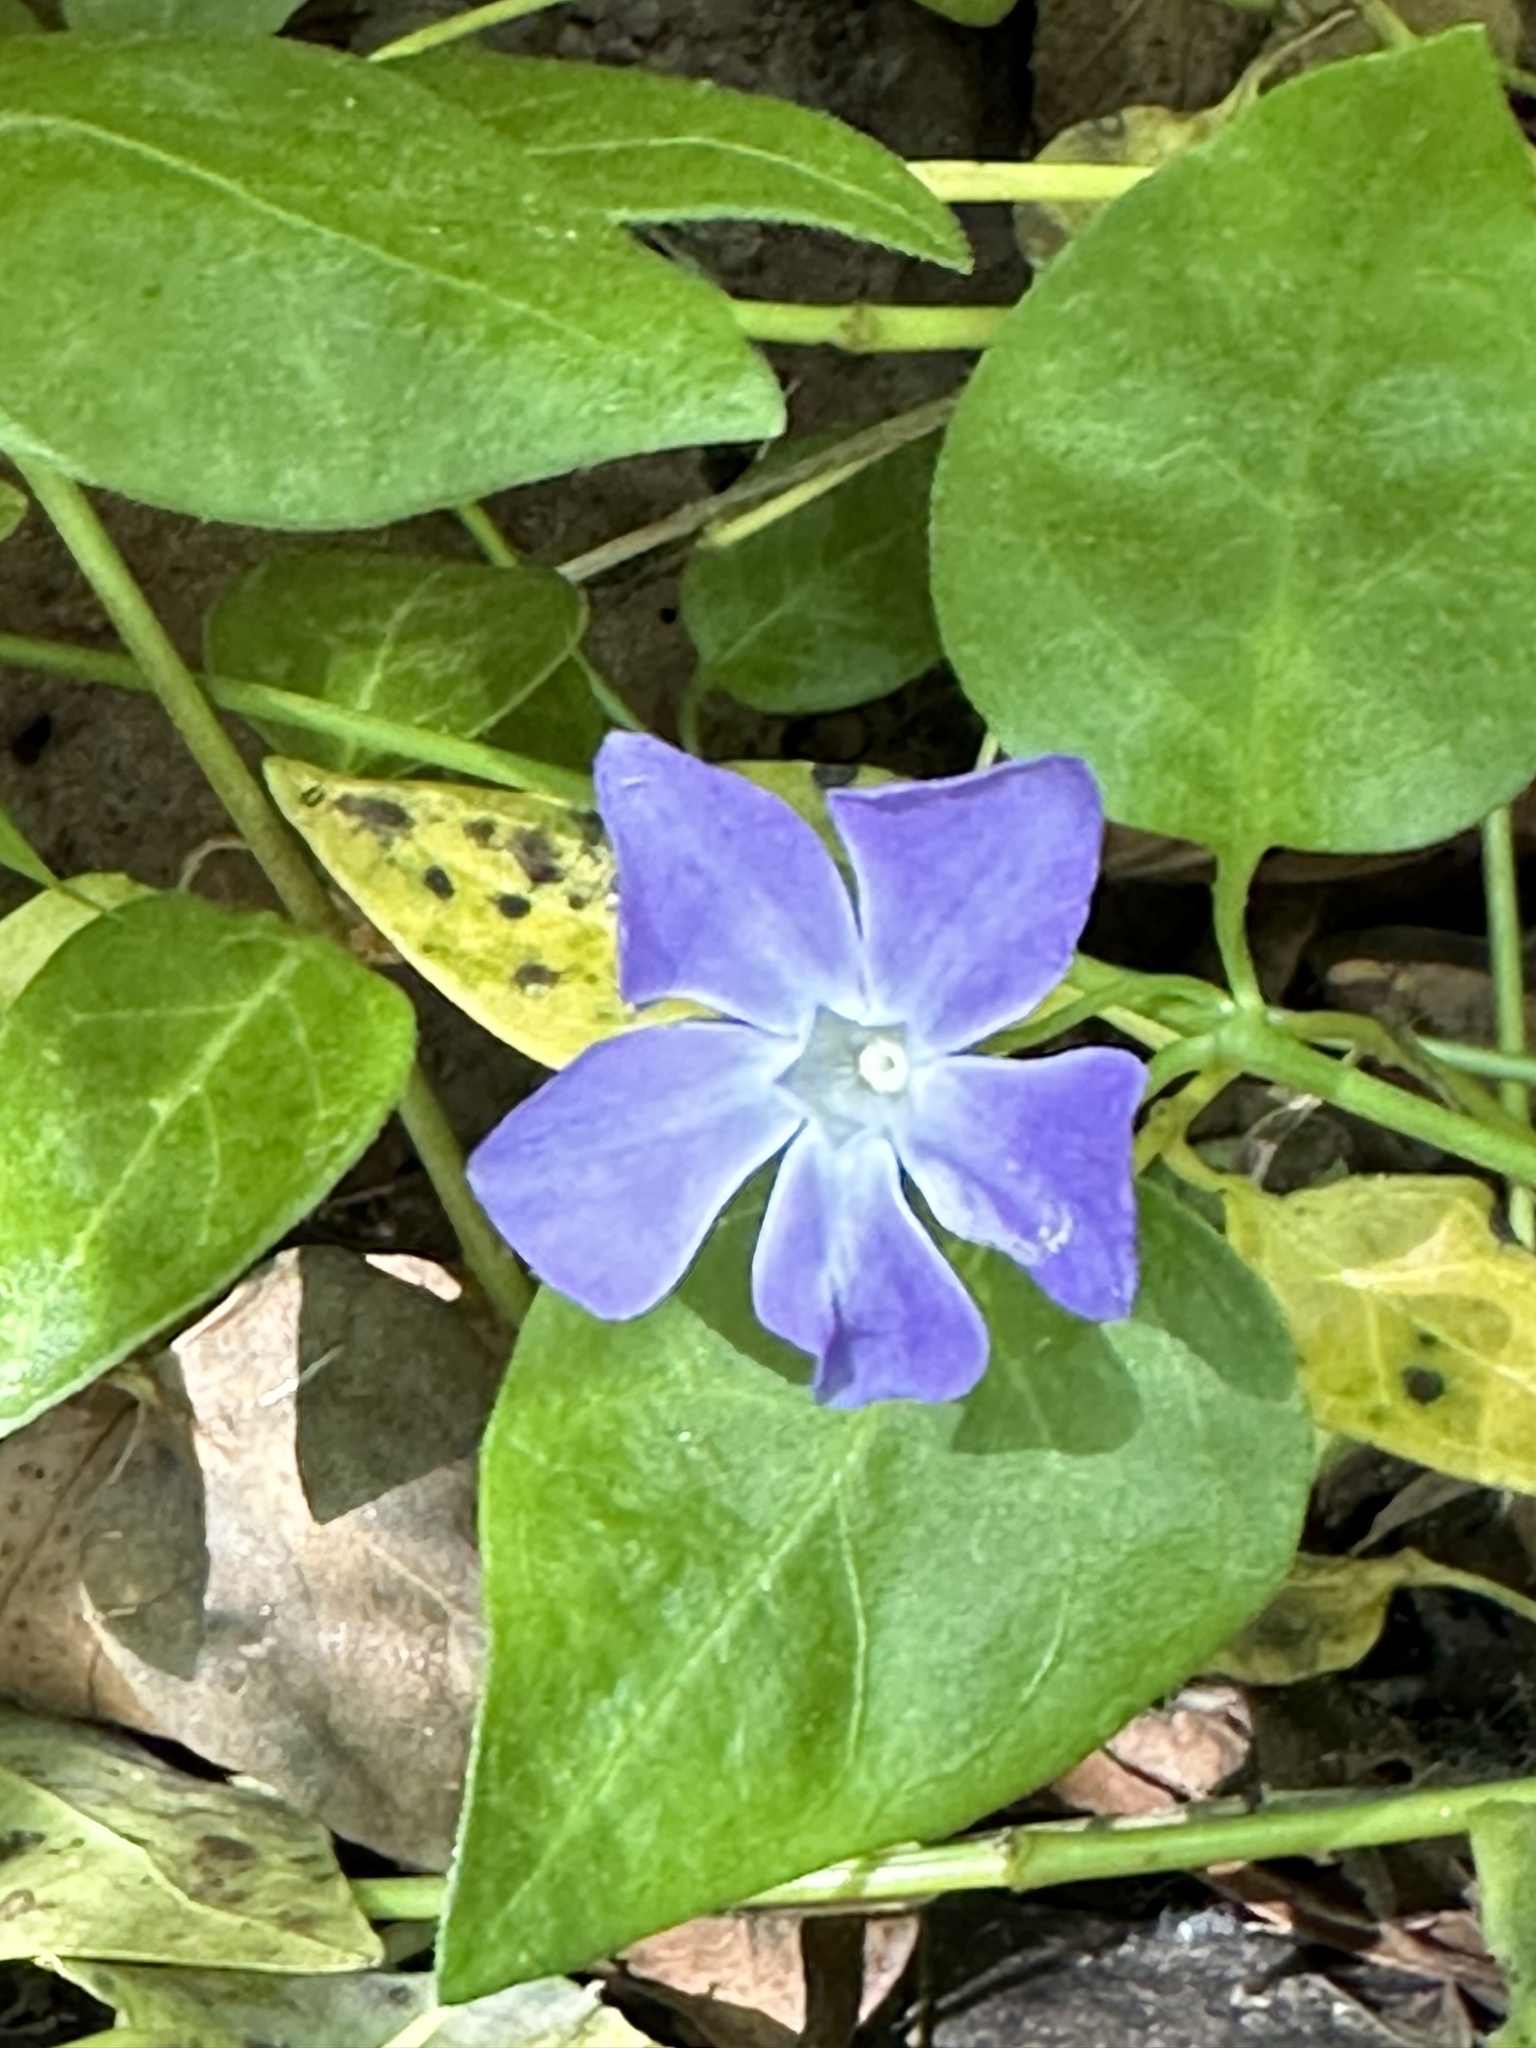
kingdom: Plantae
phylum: Tracheophyta
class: Magnoliopsida
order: Gentianales
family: Apocynaceae
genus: Vinca
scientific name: Vinca major
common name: Greater periwinkle
